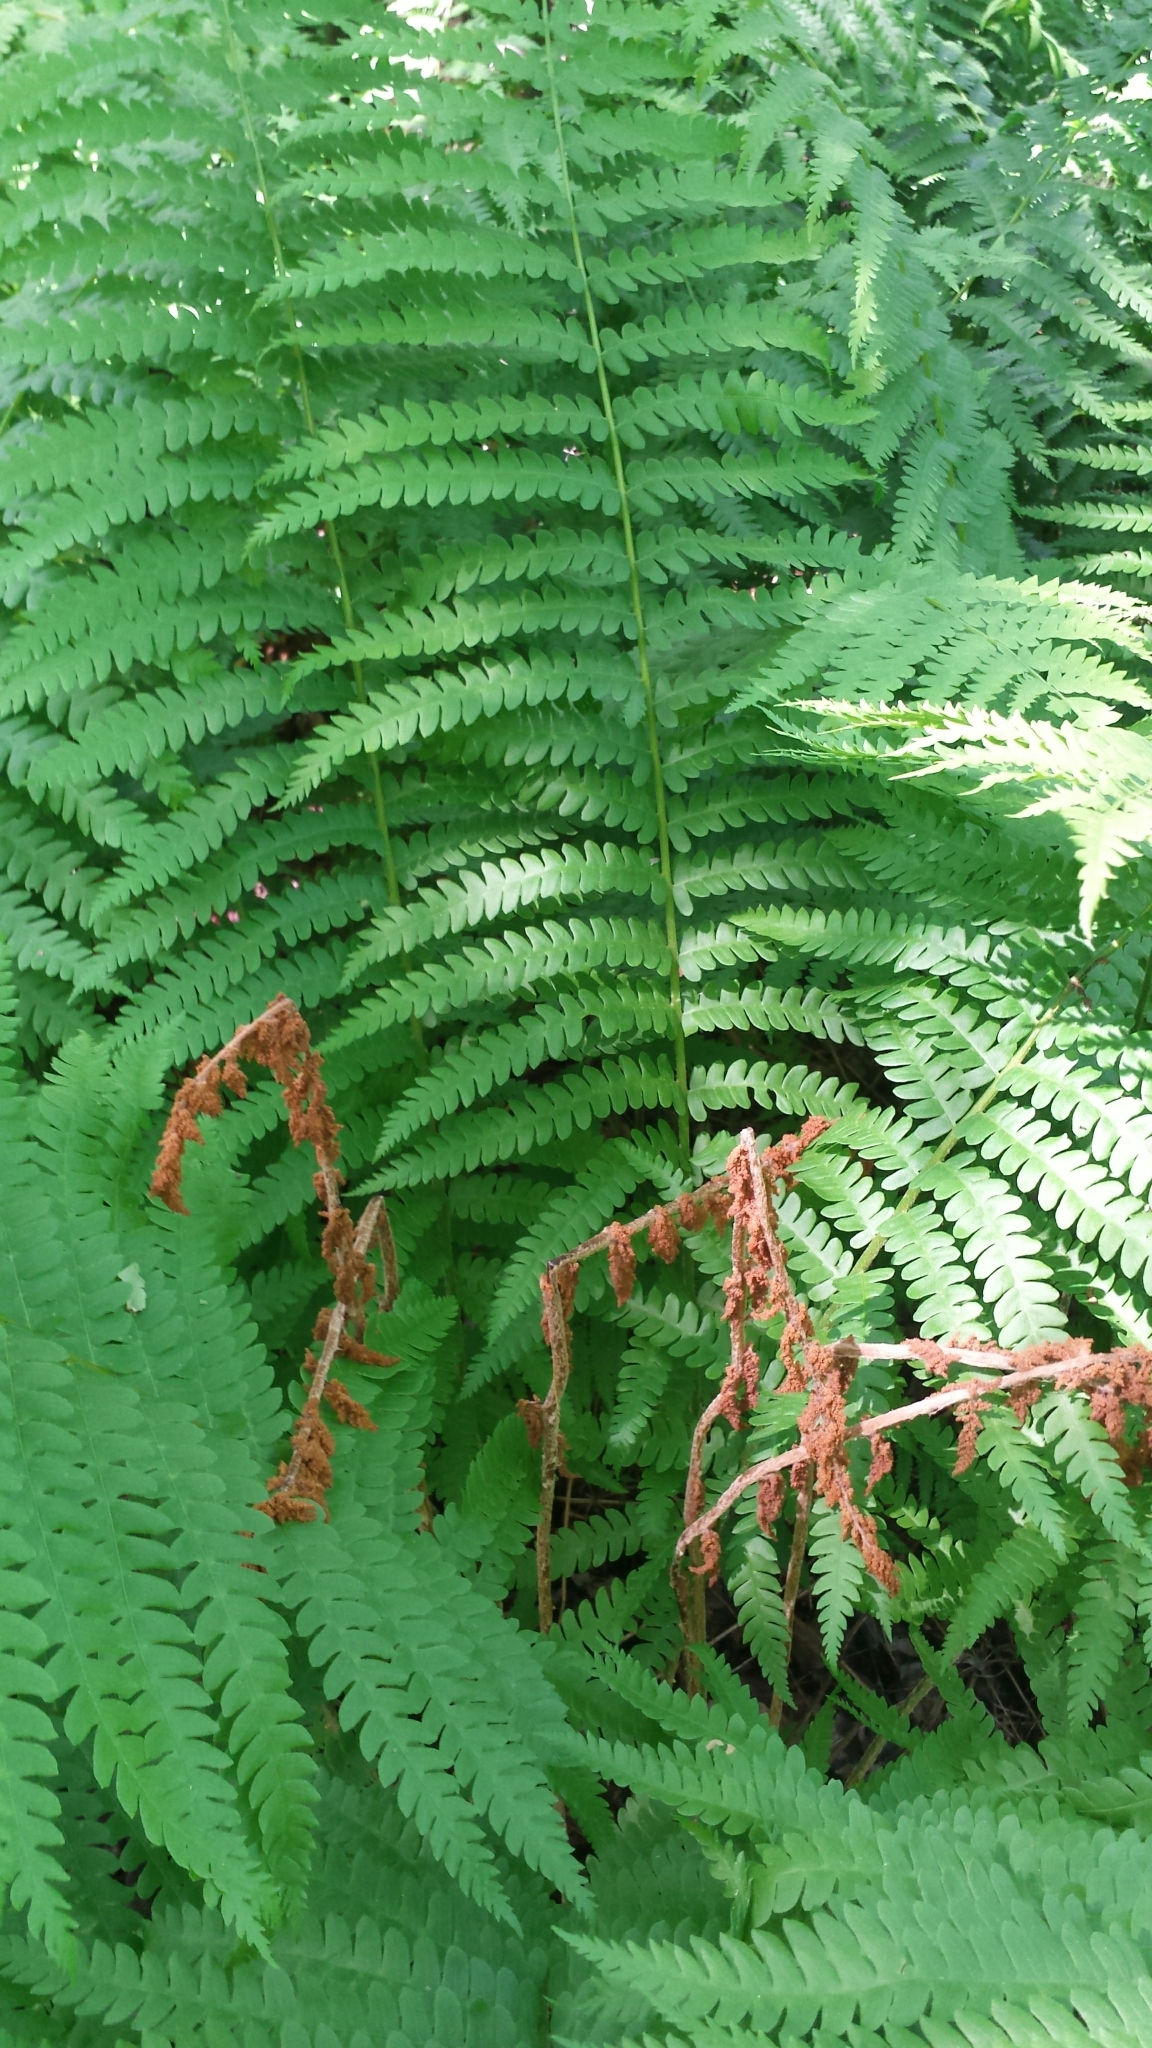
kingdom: Plantae
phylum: Tracheophyta
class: Polypodiopsida
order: Osmundales
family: Osmundaceae
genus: Osmundastrum
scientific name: Osmundastrum cinnamomeum
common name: Cinnamon fern
